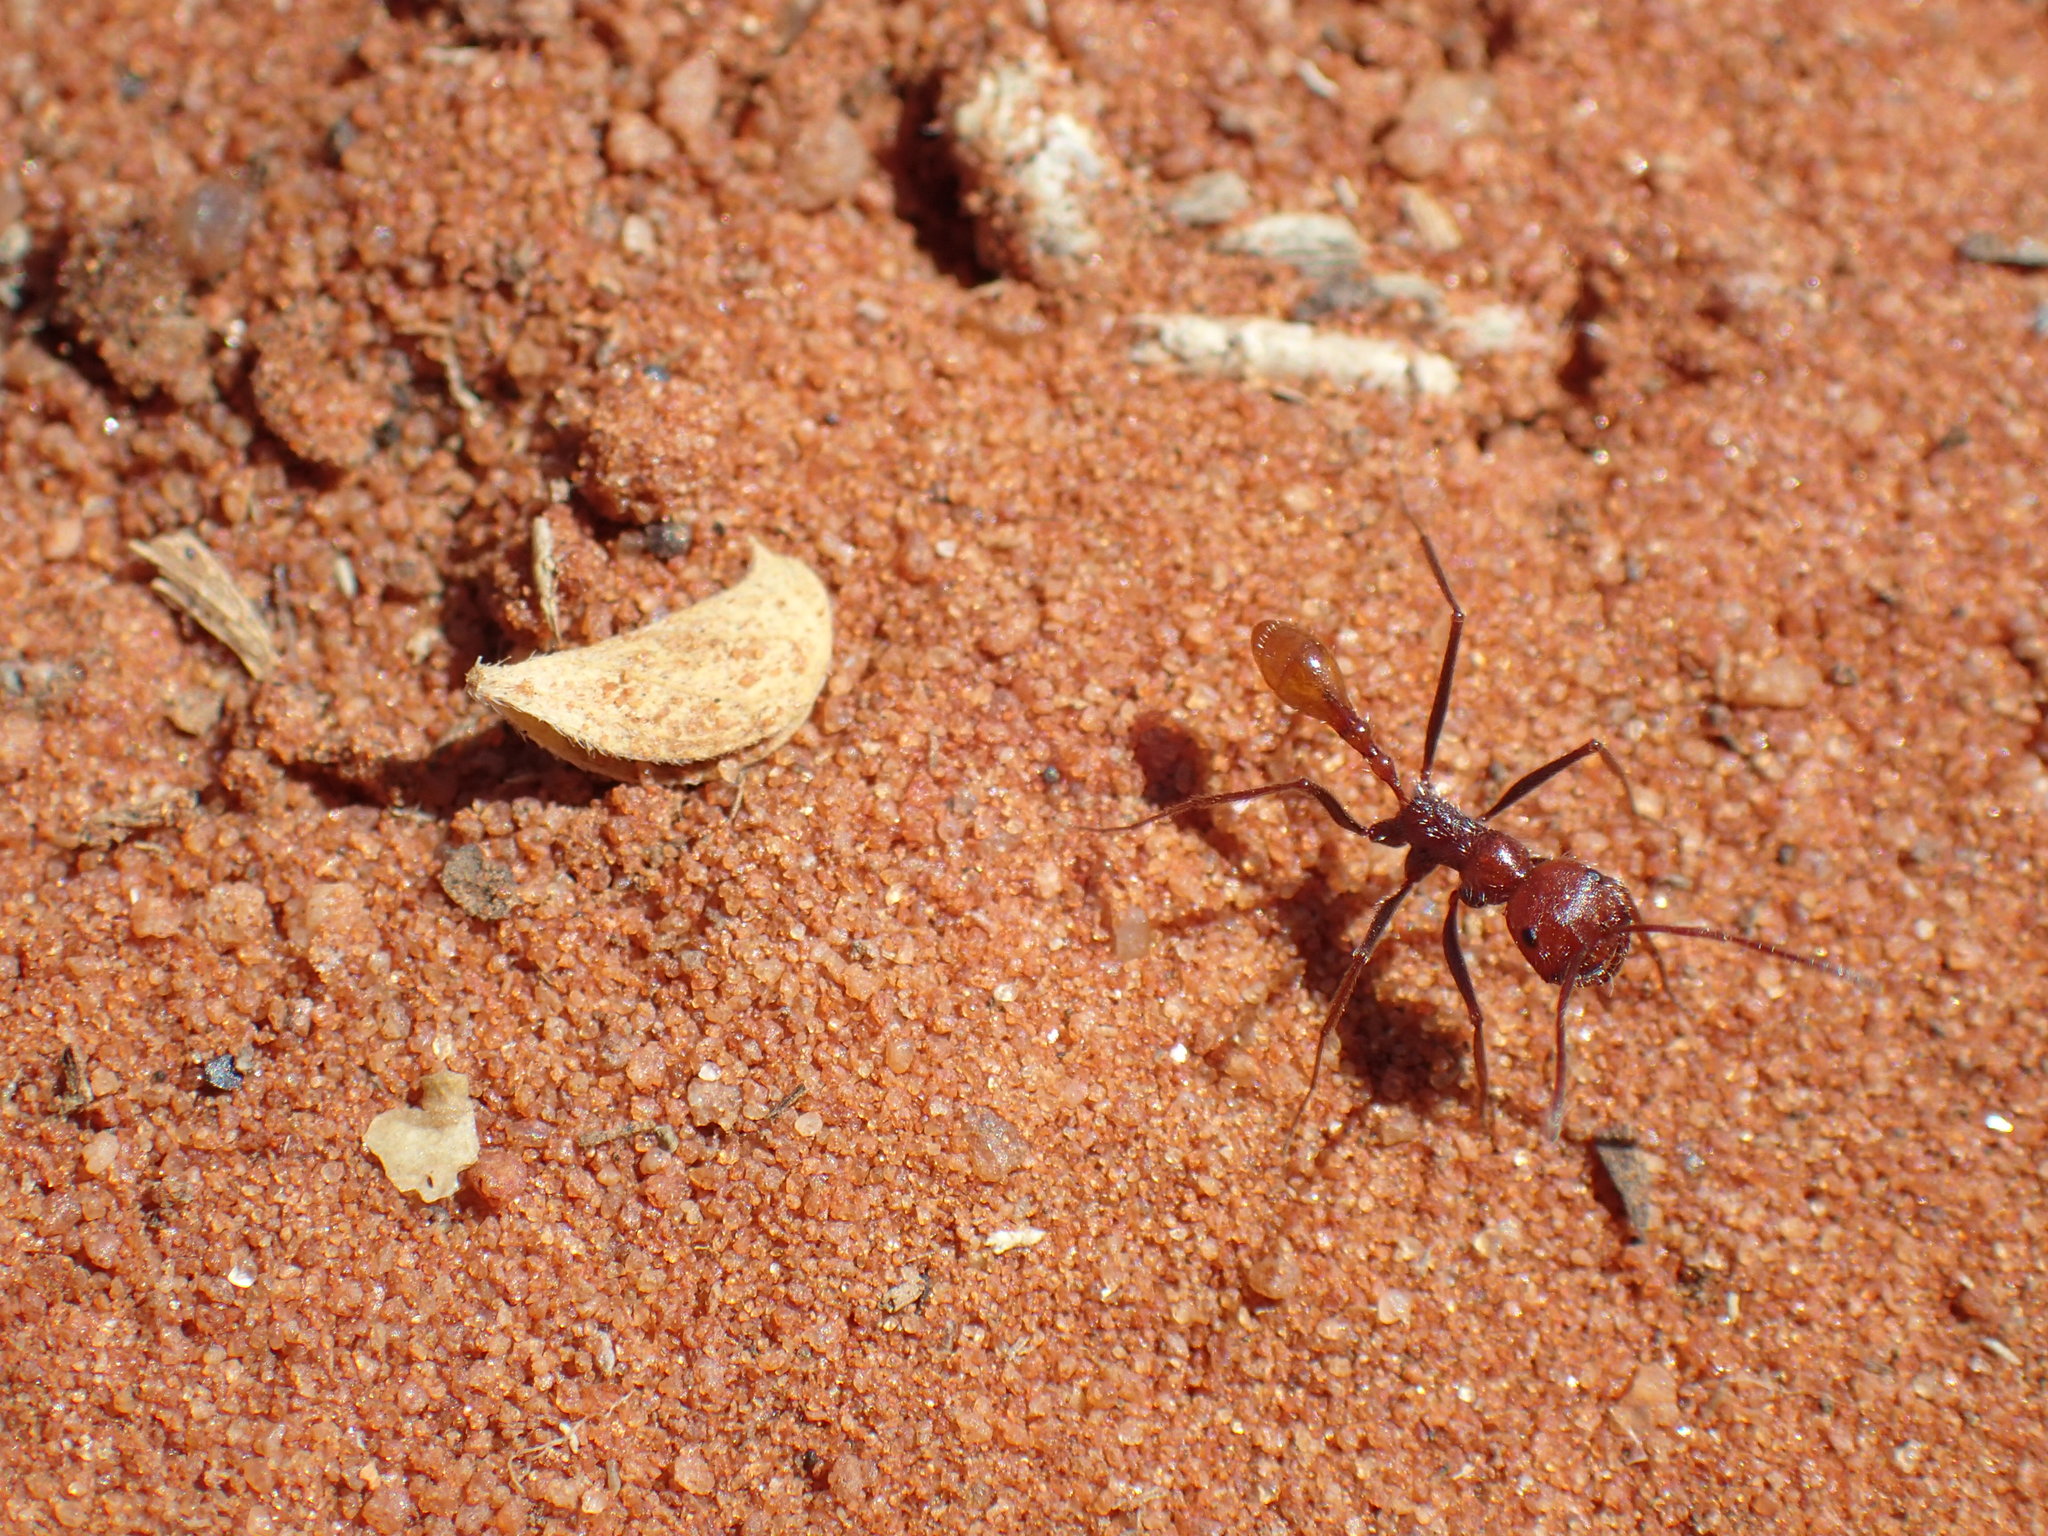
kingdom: Animalia
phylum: Arthropoda
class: Insecta
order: Hymenoptera
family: Formicidae
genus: Ocymyrmex
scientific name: Ocymyrmex flaviventris
